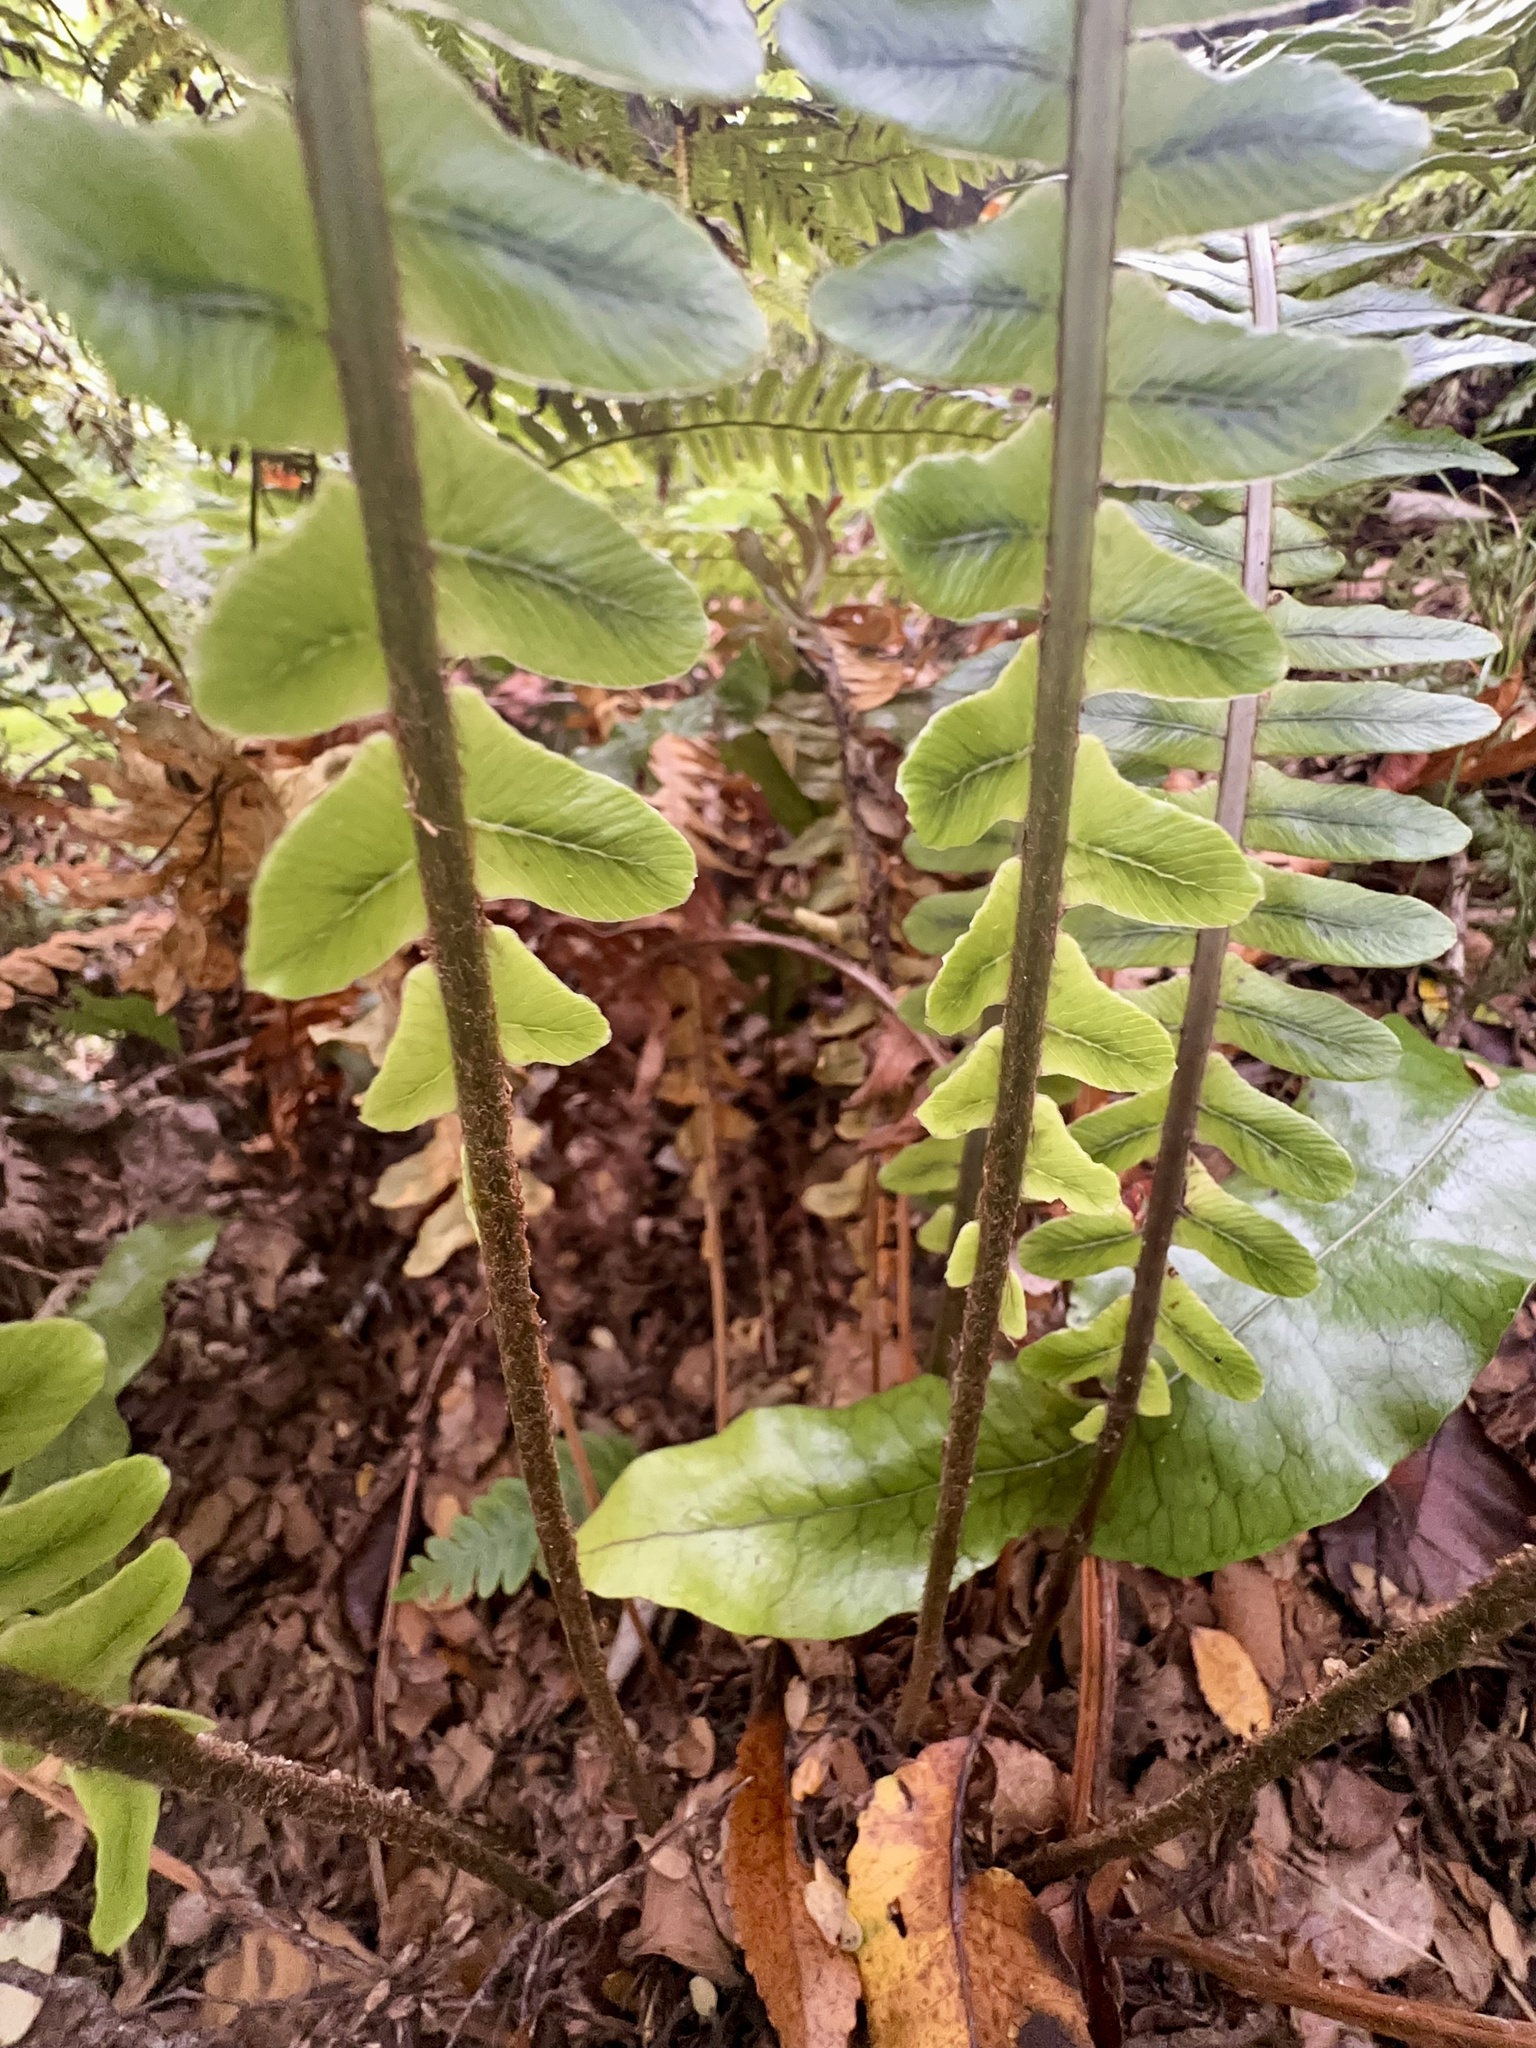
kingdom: Plantae
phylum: Tracheophyta
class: Polypodiopsida
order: Polypodiales
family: Blechnaceae
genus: Lomaria
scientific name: Lomaria discolor
